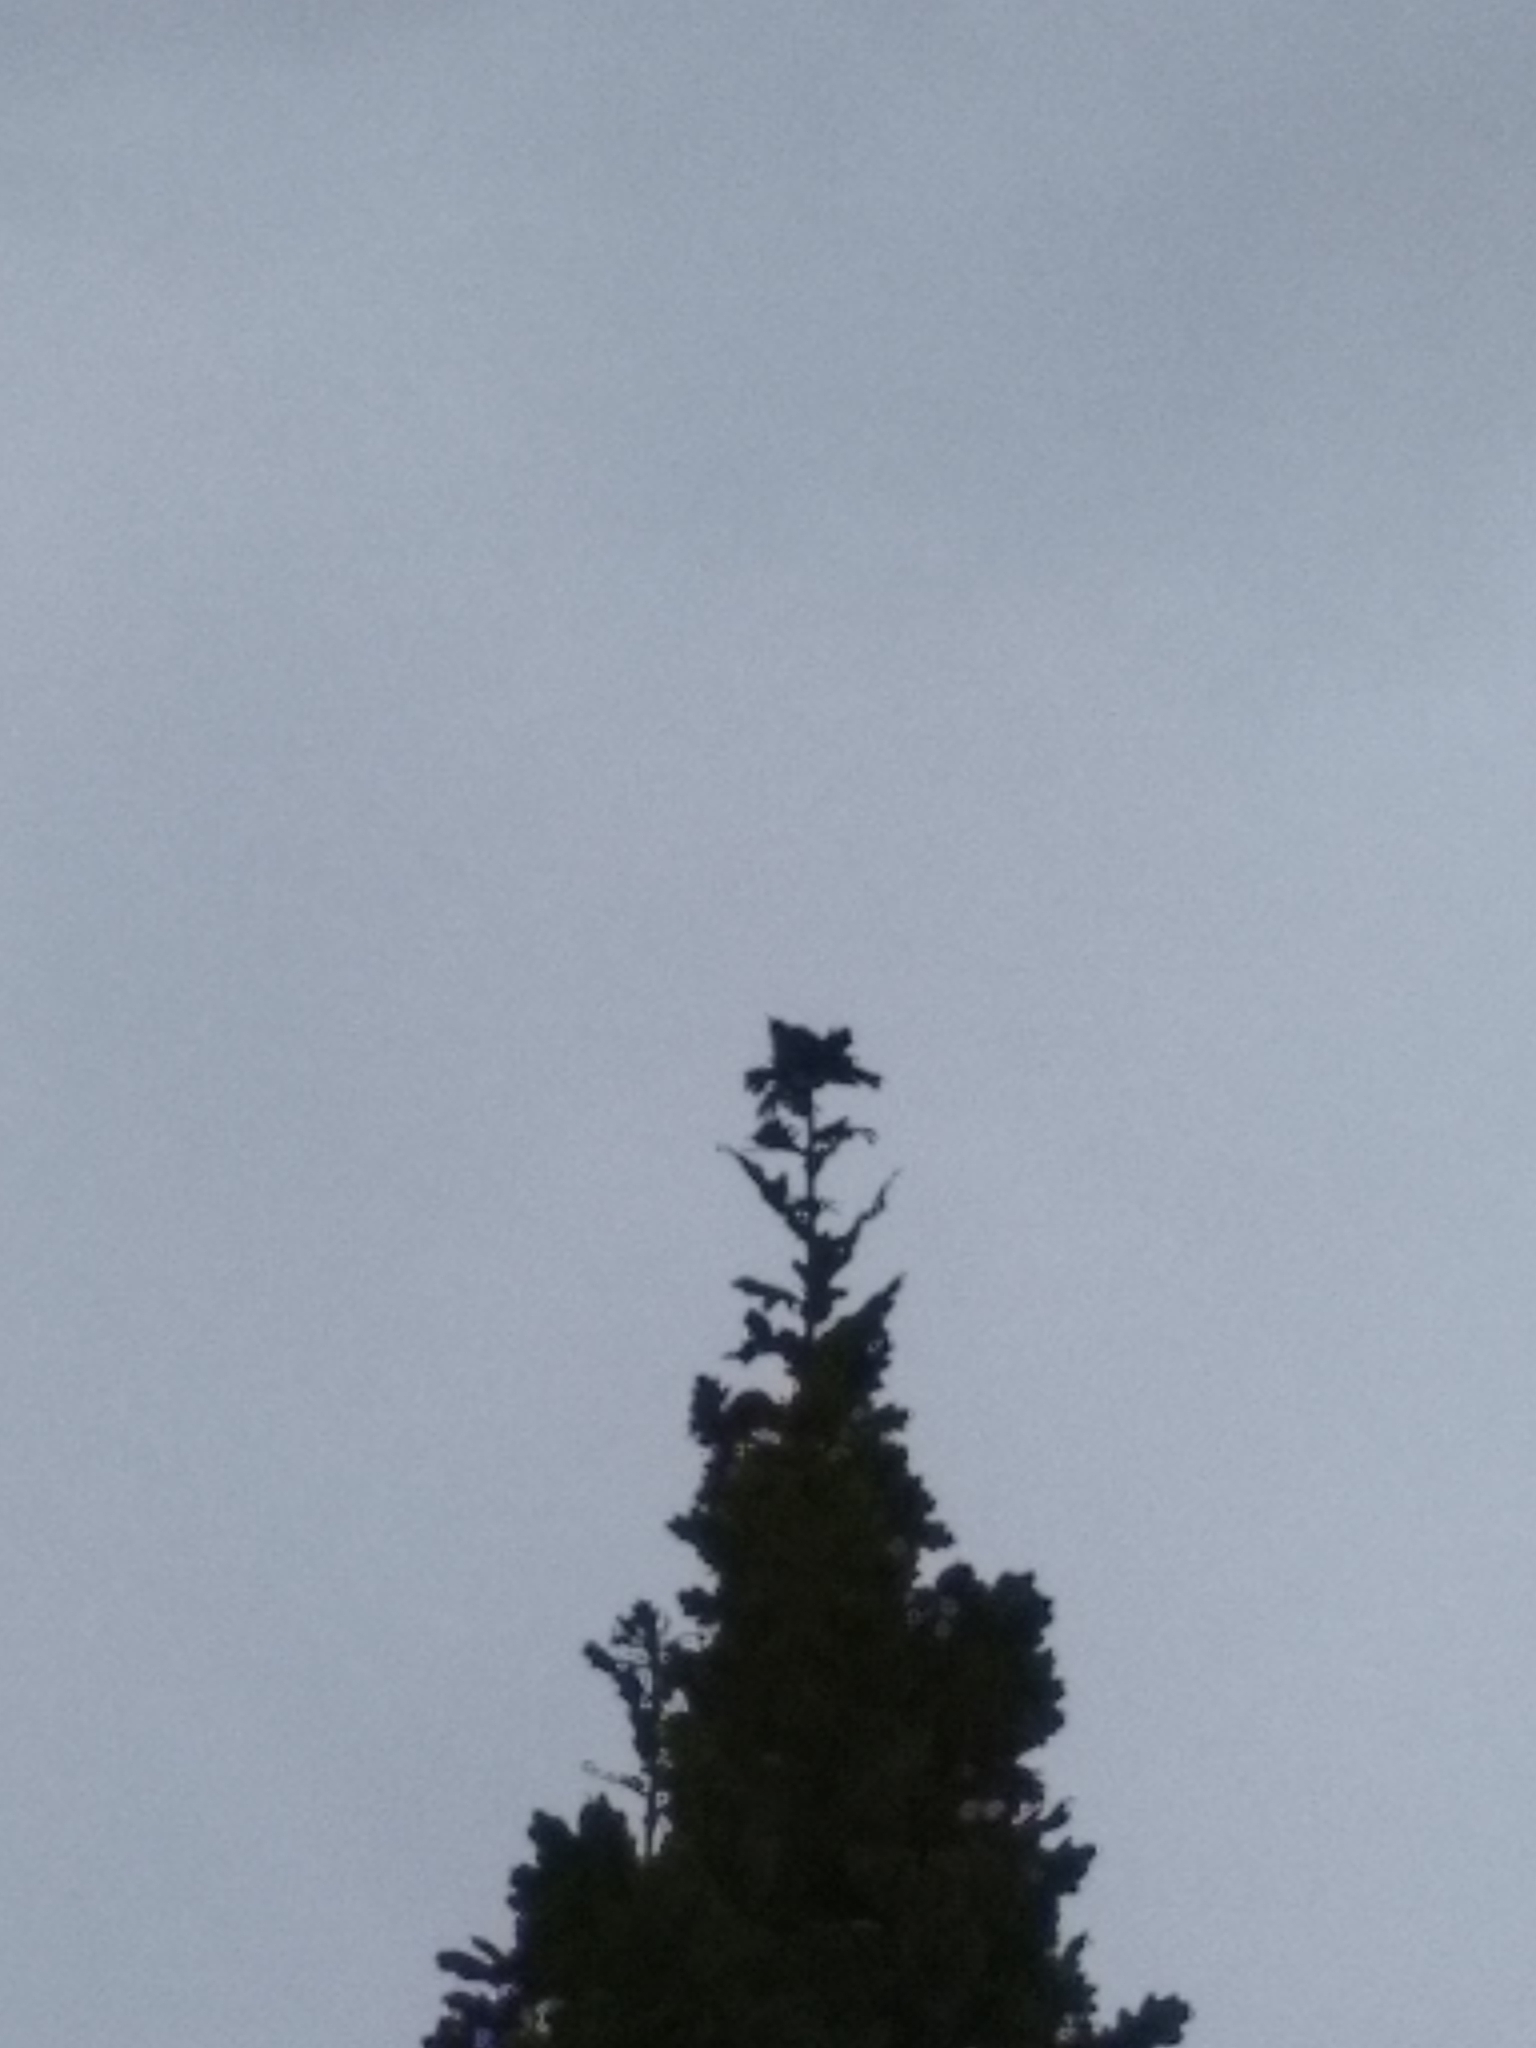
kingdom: Animalia
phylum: Chordata
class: Aves
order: Passeriformes
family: Fringillidae
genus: Carduelis
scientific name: Carduelis carduelis
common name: European goldfinch
